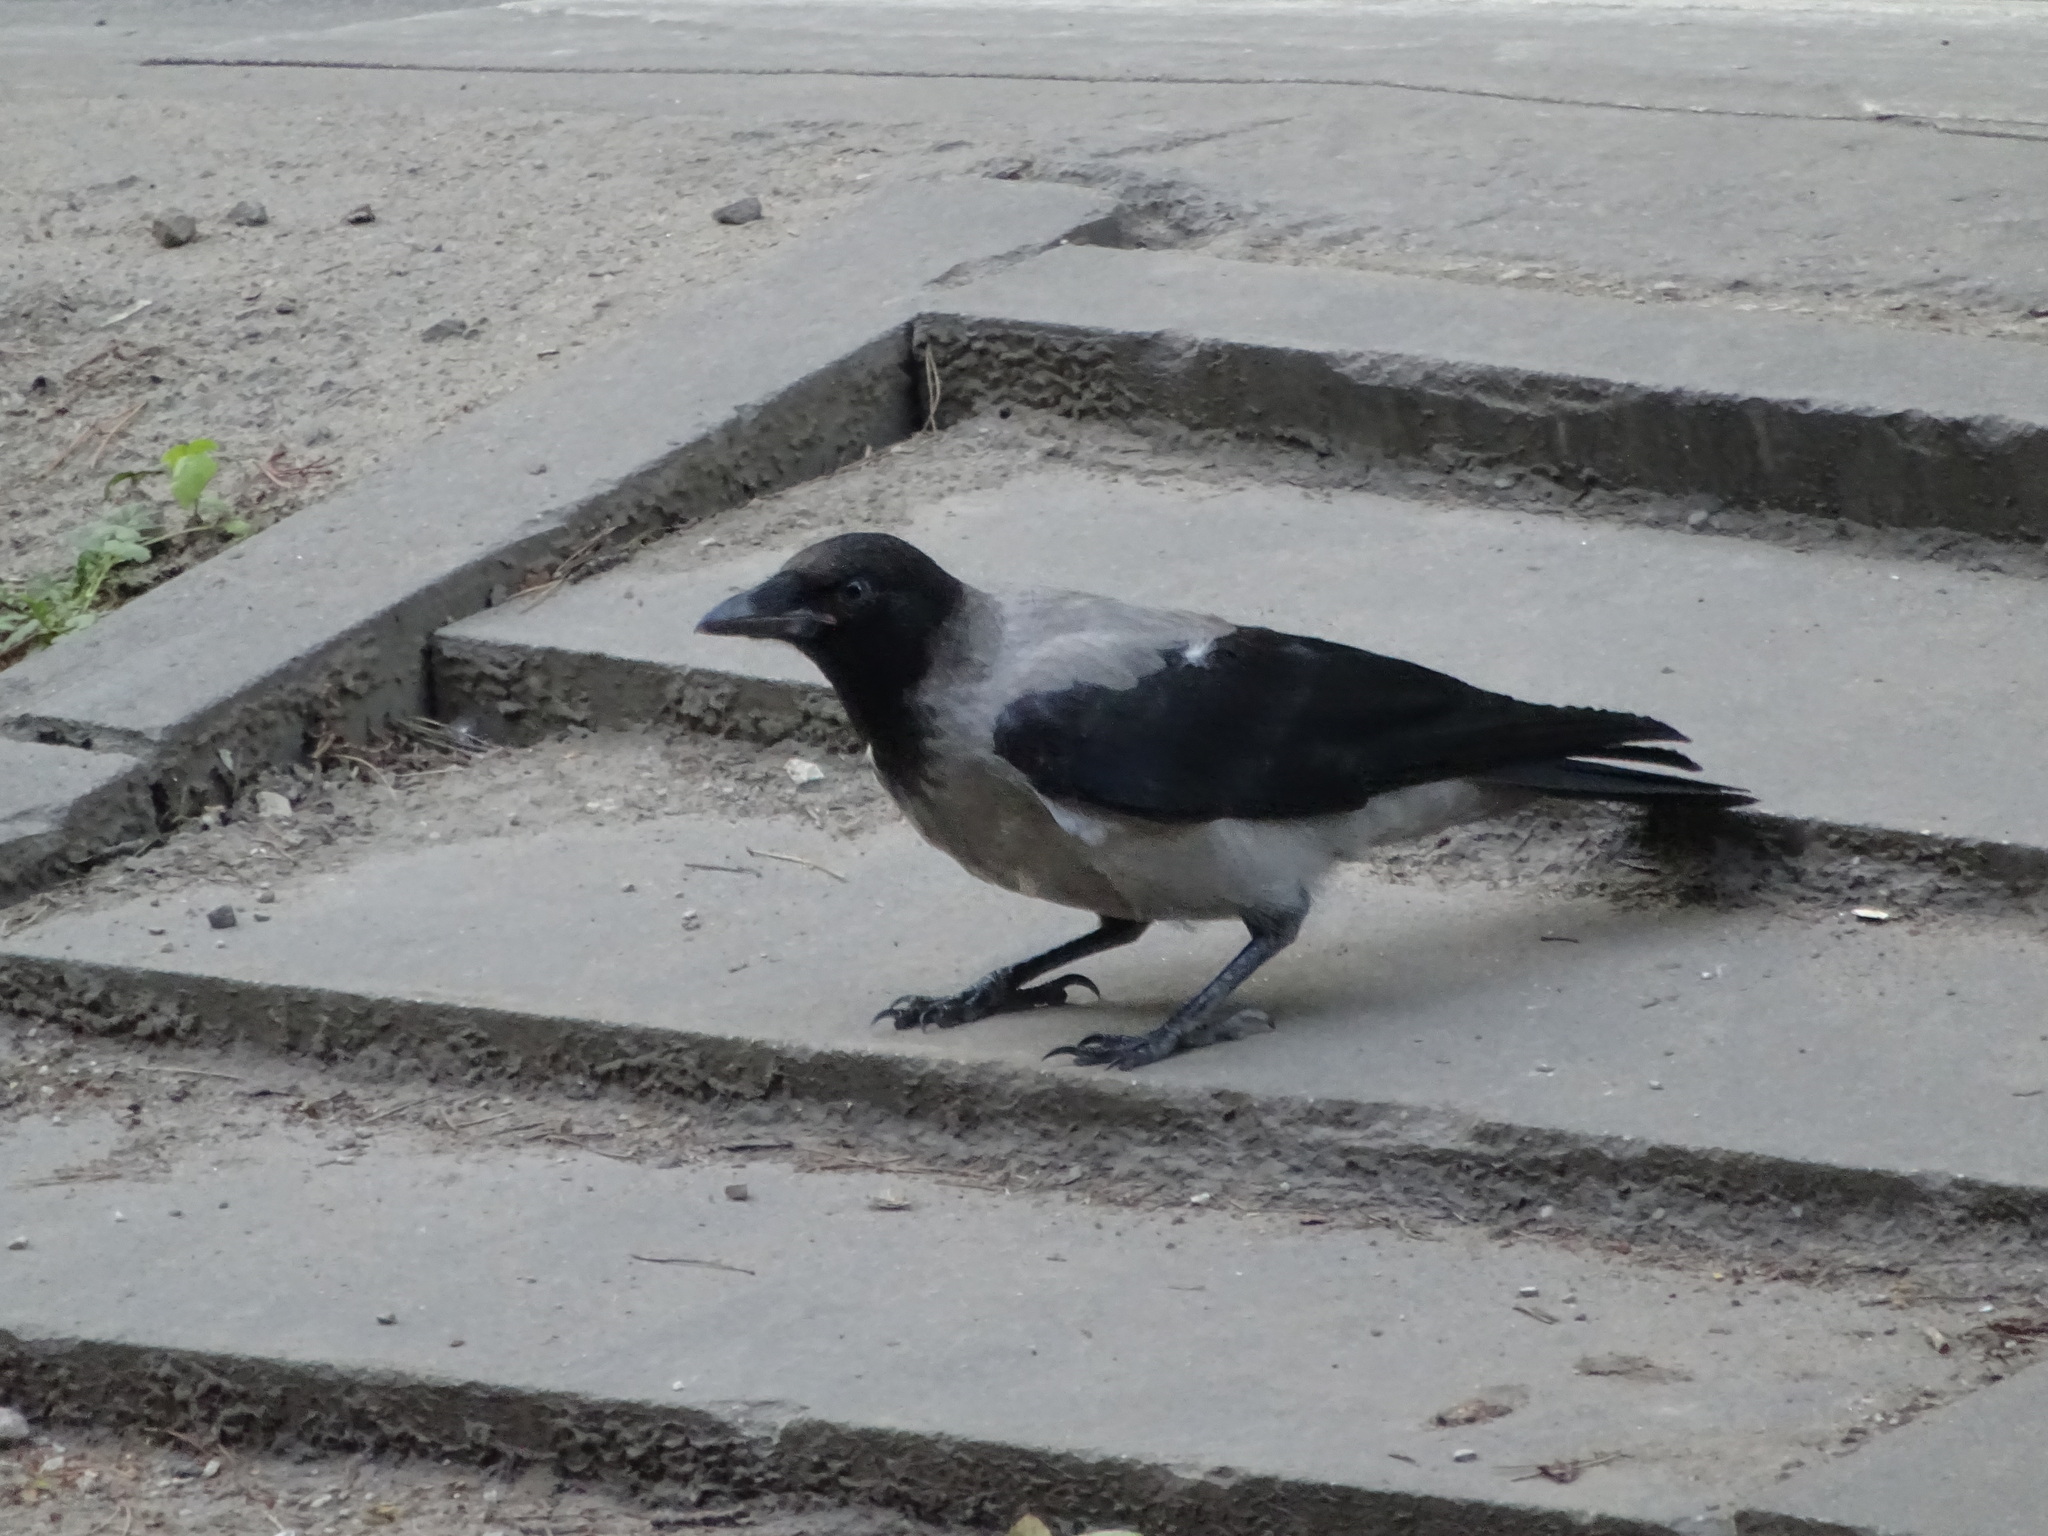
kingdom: Animalia
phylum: Chordata
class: Aves
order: Passeriformes
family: Corvidae
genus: Corvus
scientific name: Corvus cornix
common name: Hooded crow
